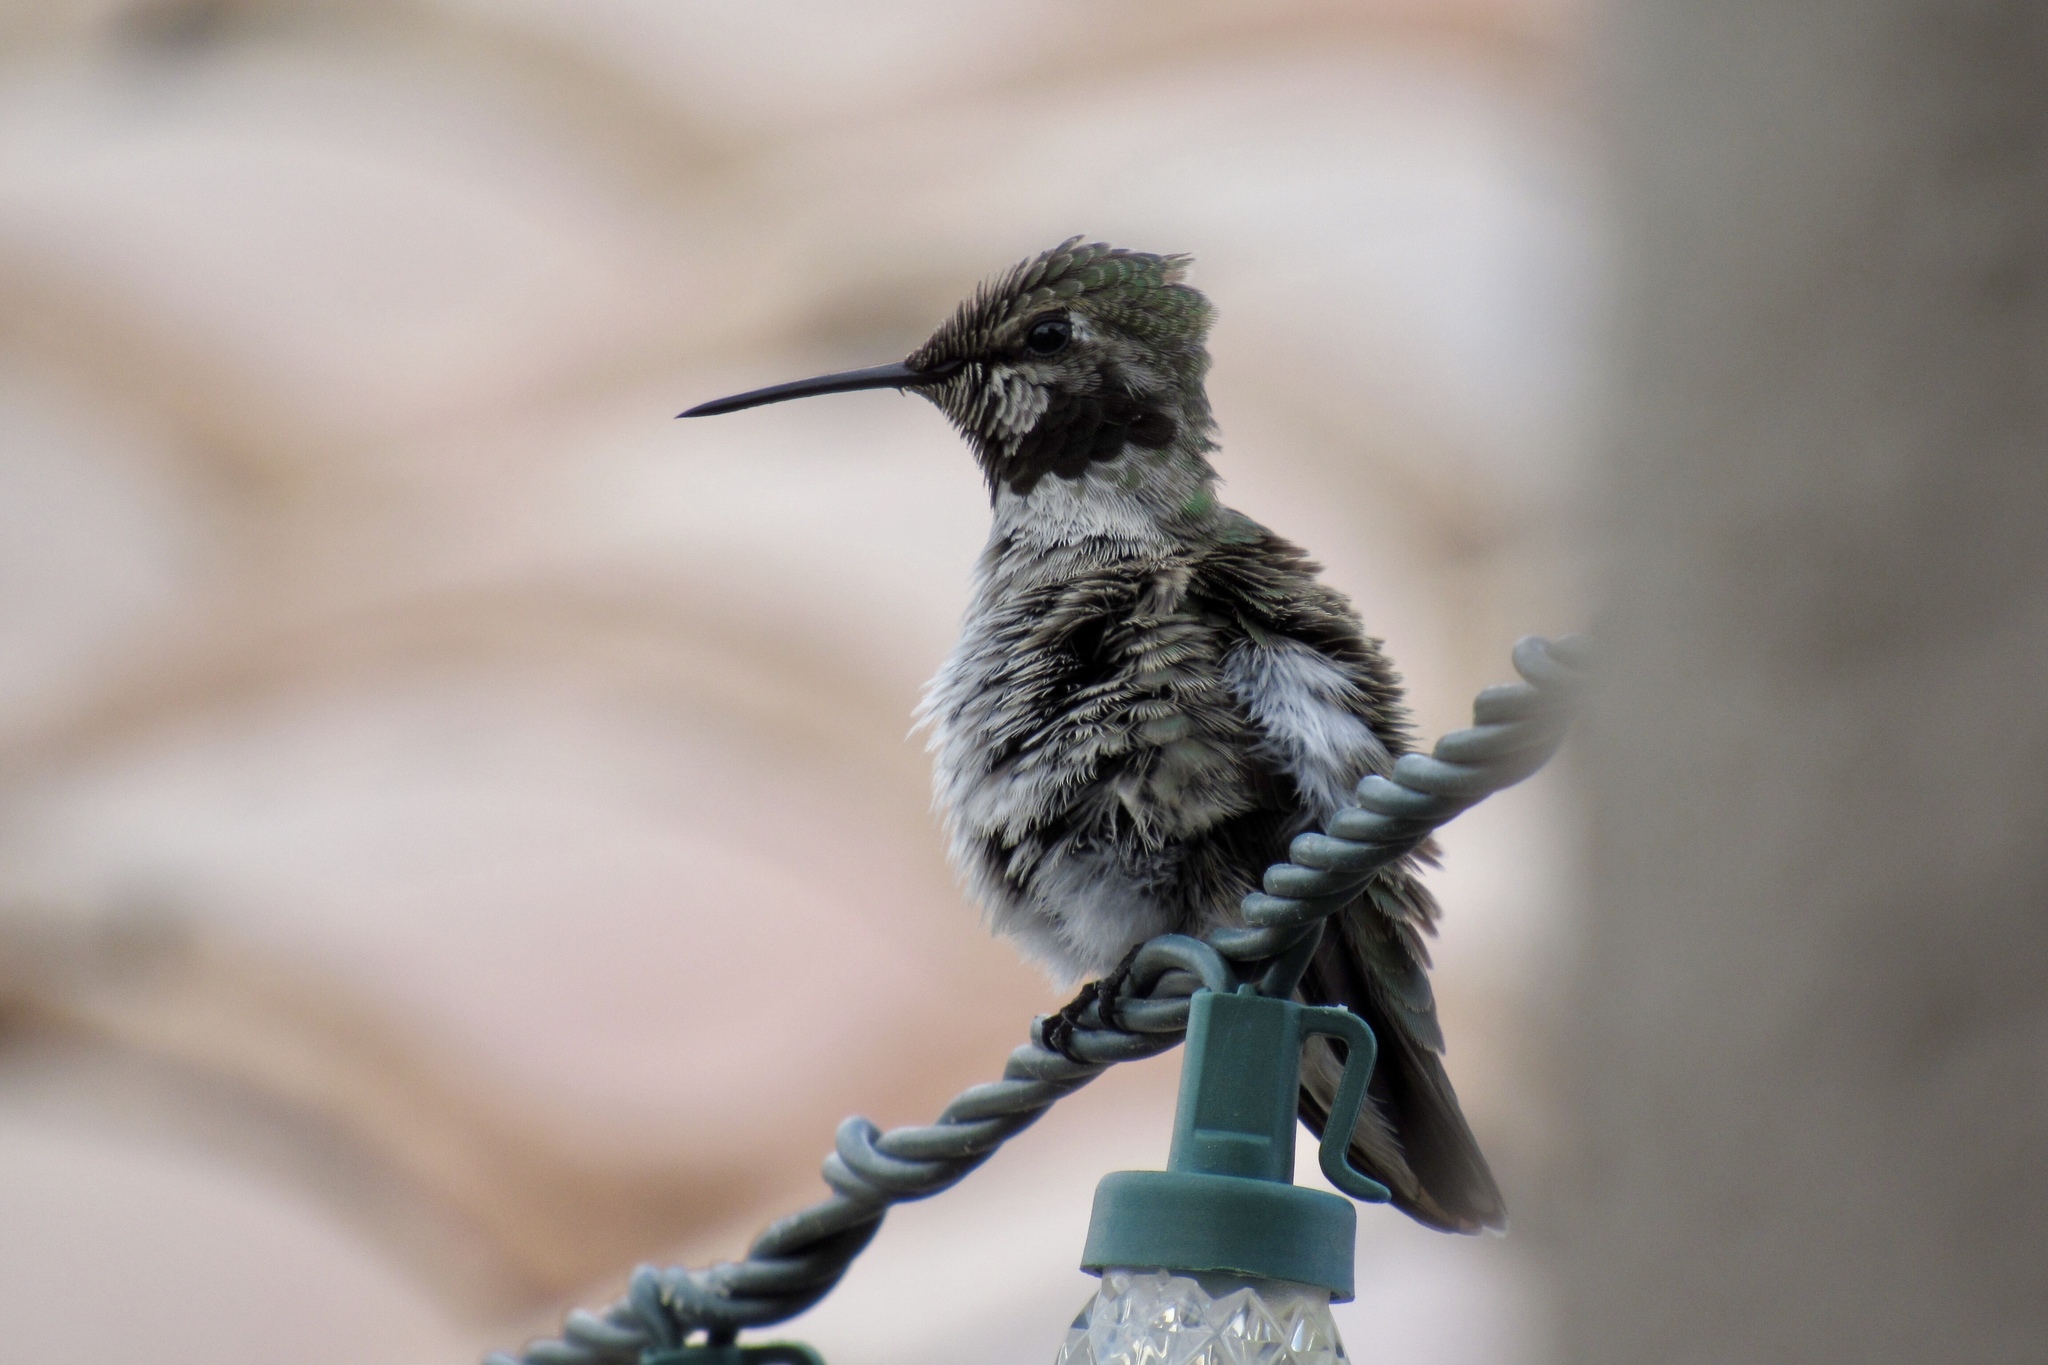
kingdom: Animalia
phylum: Chordata
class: Aves
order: Apodiformes
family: Trochilidae
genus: Calypte
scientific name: Calypte costae
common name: Costa's hummingbird
